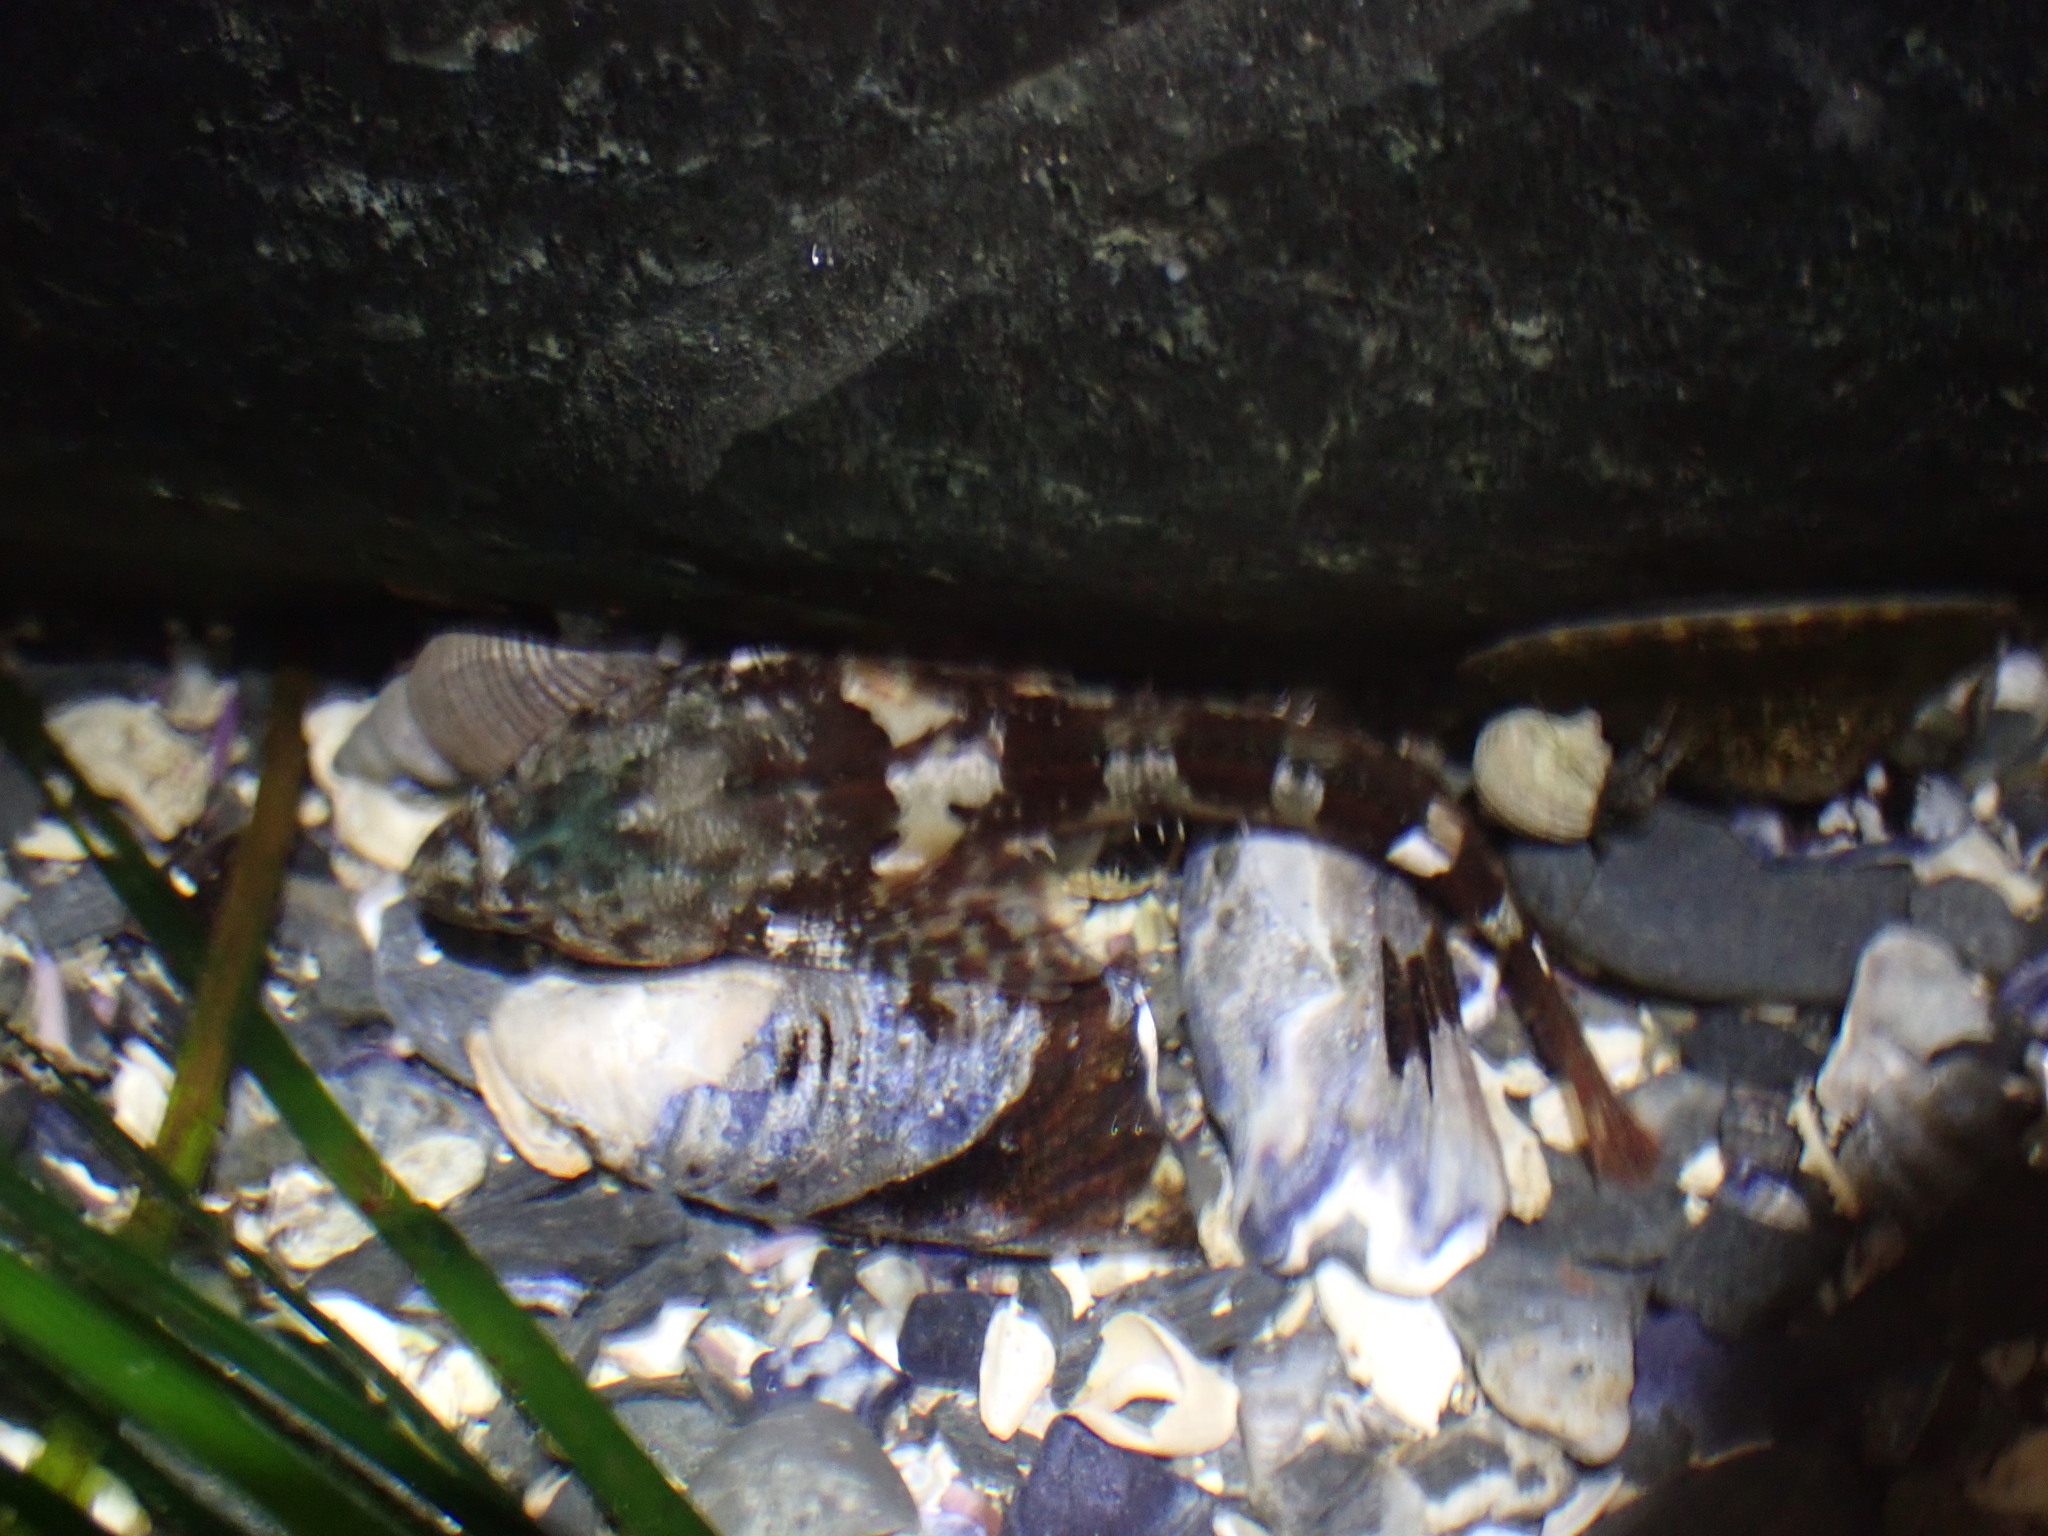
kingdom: Animalia
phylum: Chordata
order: Scorpaeniformes
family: Cottidae
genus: Oligocottus
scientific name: Oligocottus maculosus
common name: Tidepool sculpin
